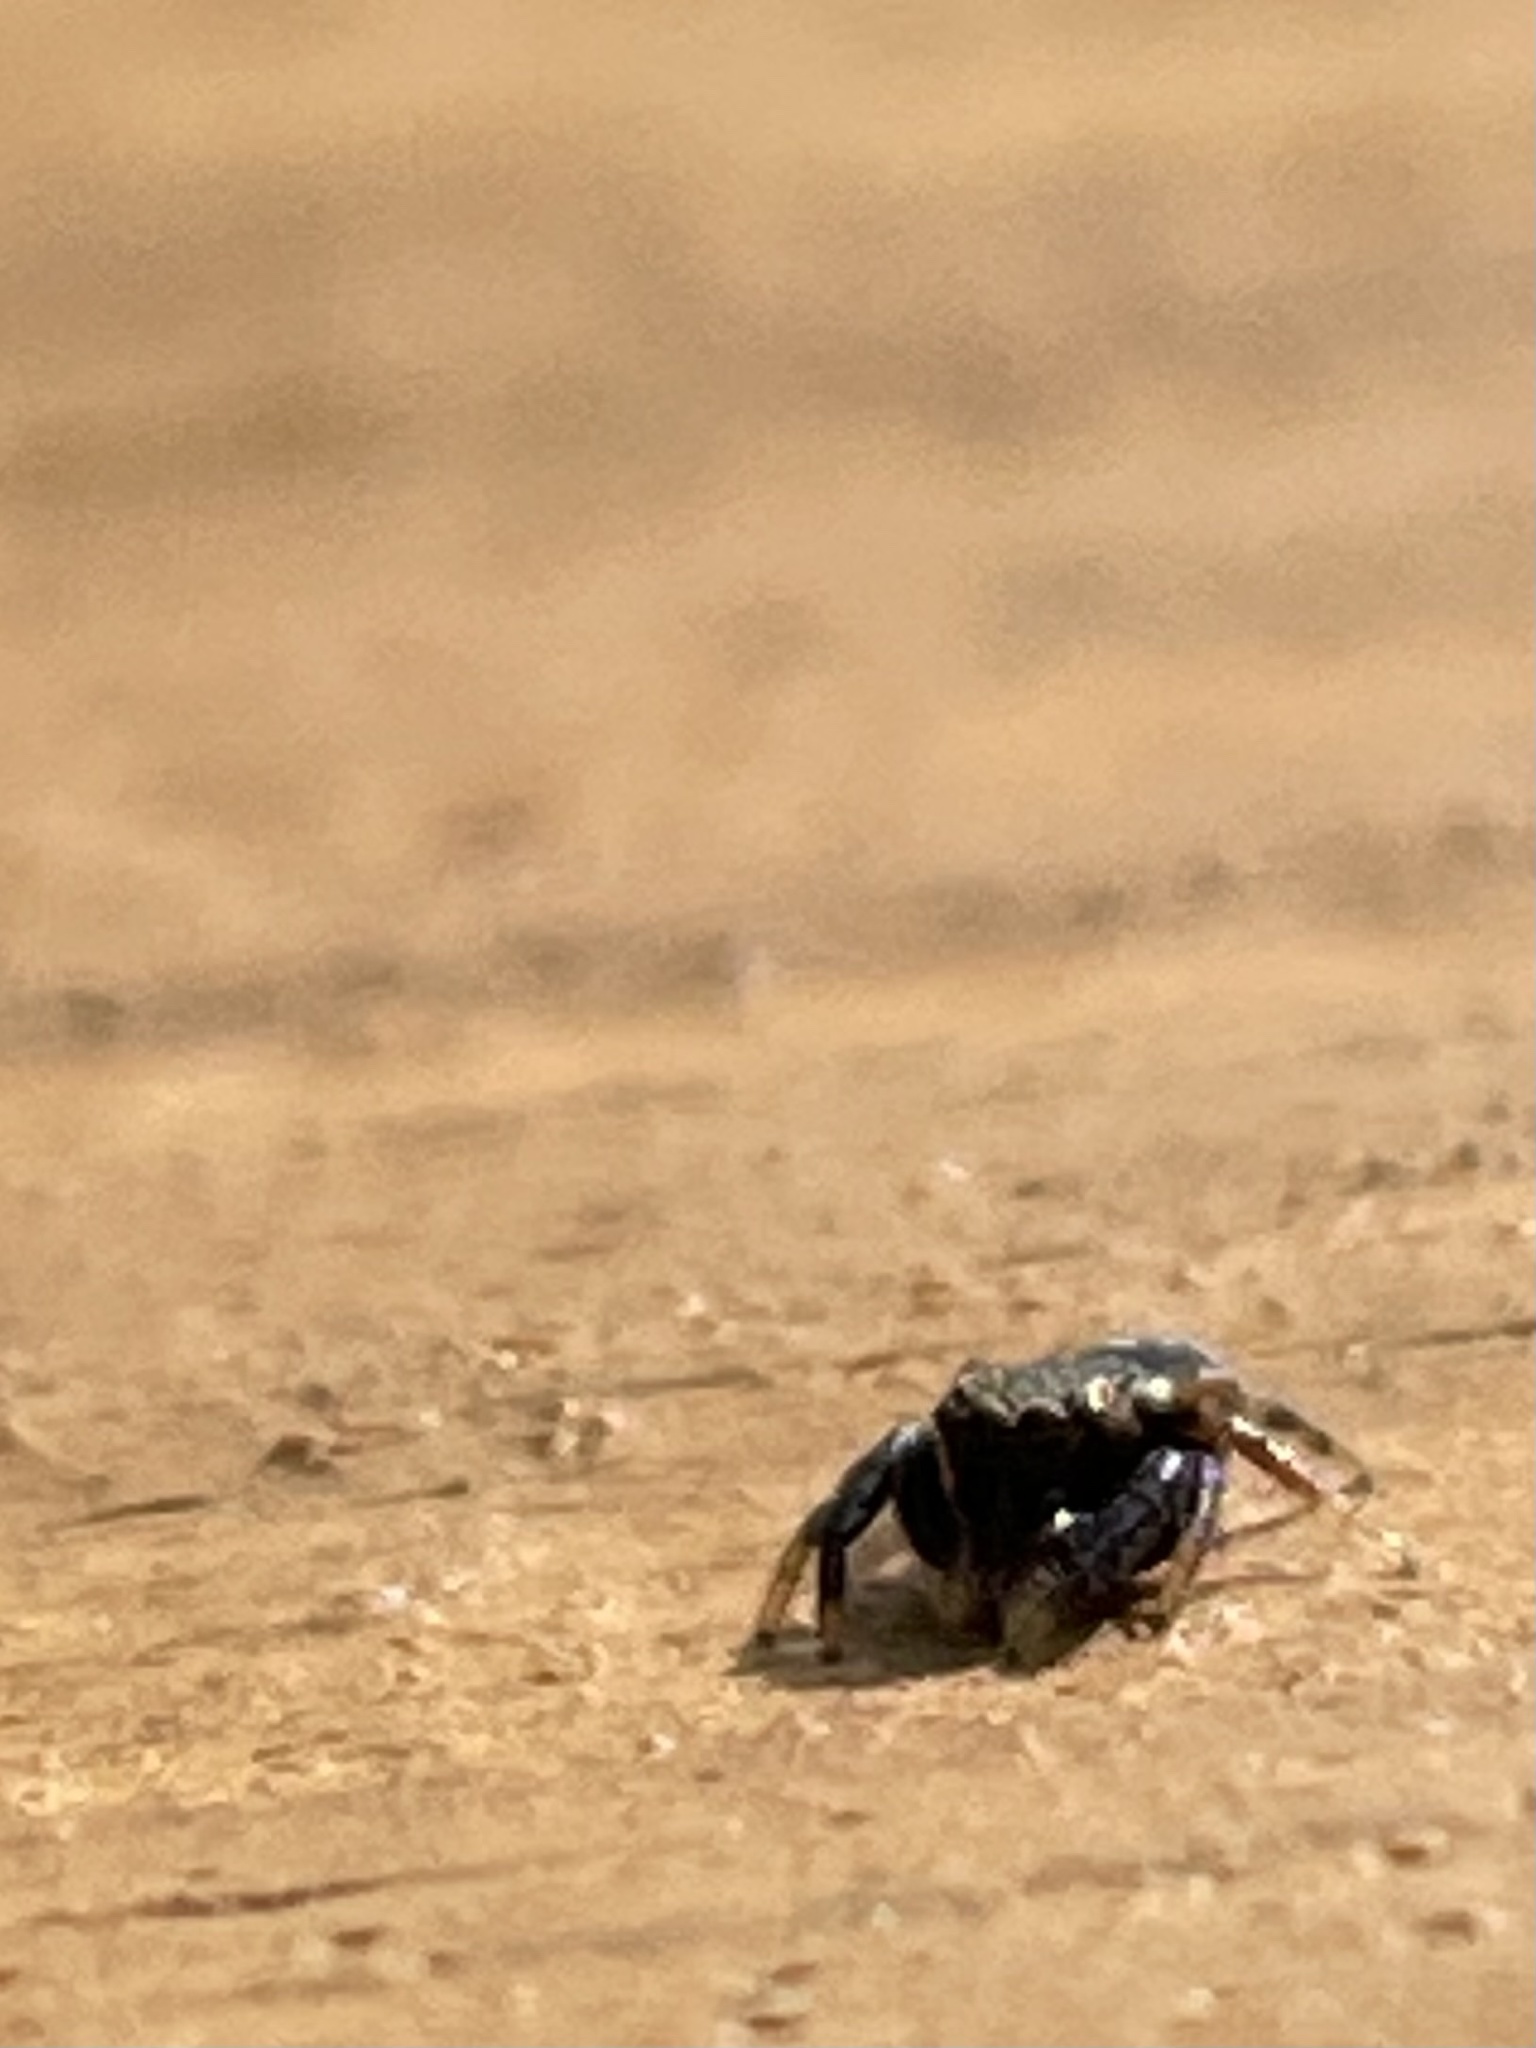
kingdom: Animalia
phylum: Arthropoda
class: Arachnida
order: Araneae
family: Salticidae
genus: Paraphidippus
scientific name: Paraphidippus aurantius
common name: Jumping spiders
